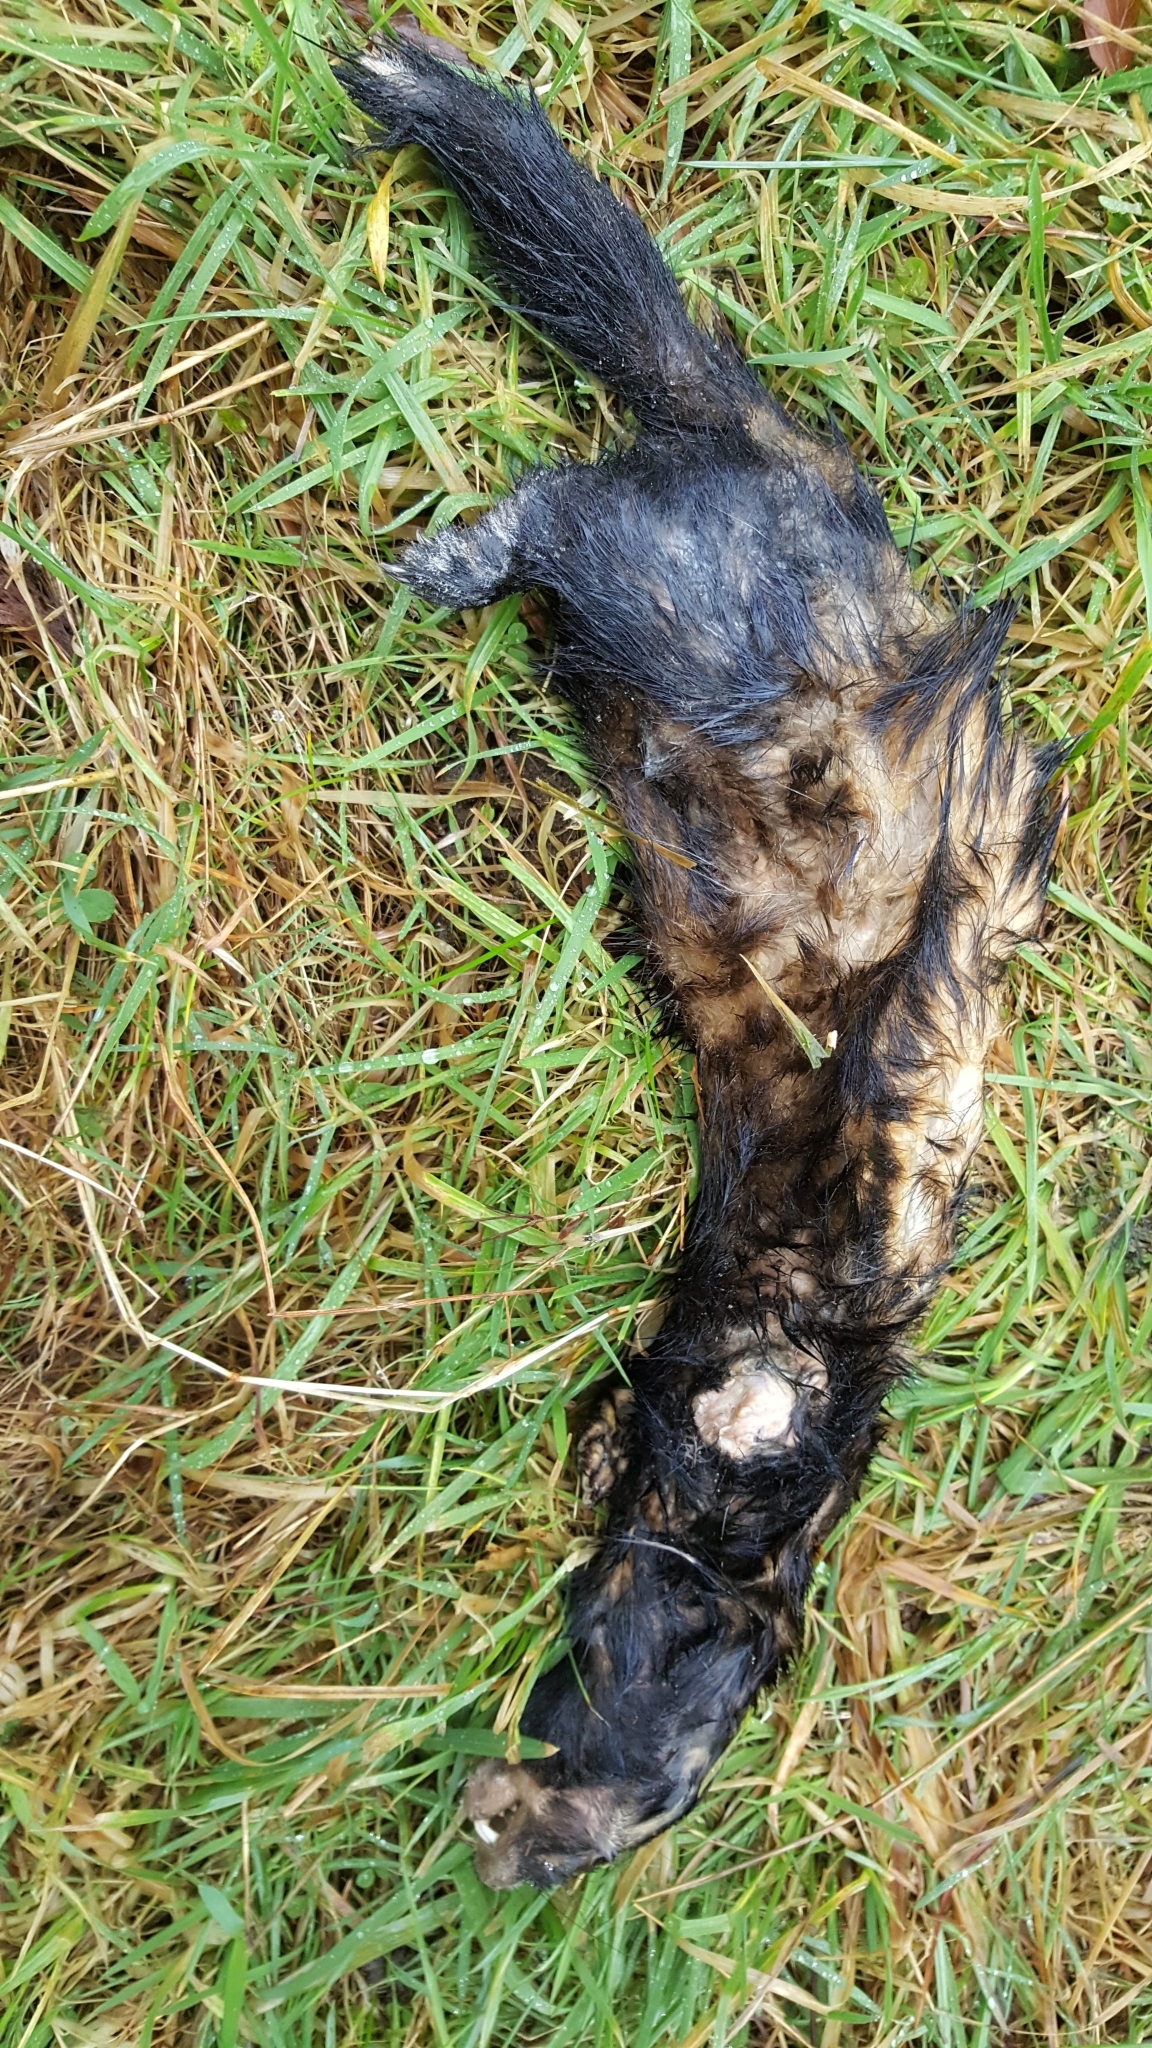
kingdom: Animalia
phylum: Chordata
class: Mammalia
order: Carnivora
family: Mustelidae
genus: Mustela
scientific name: Mustela putorius
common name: European polecat
